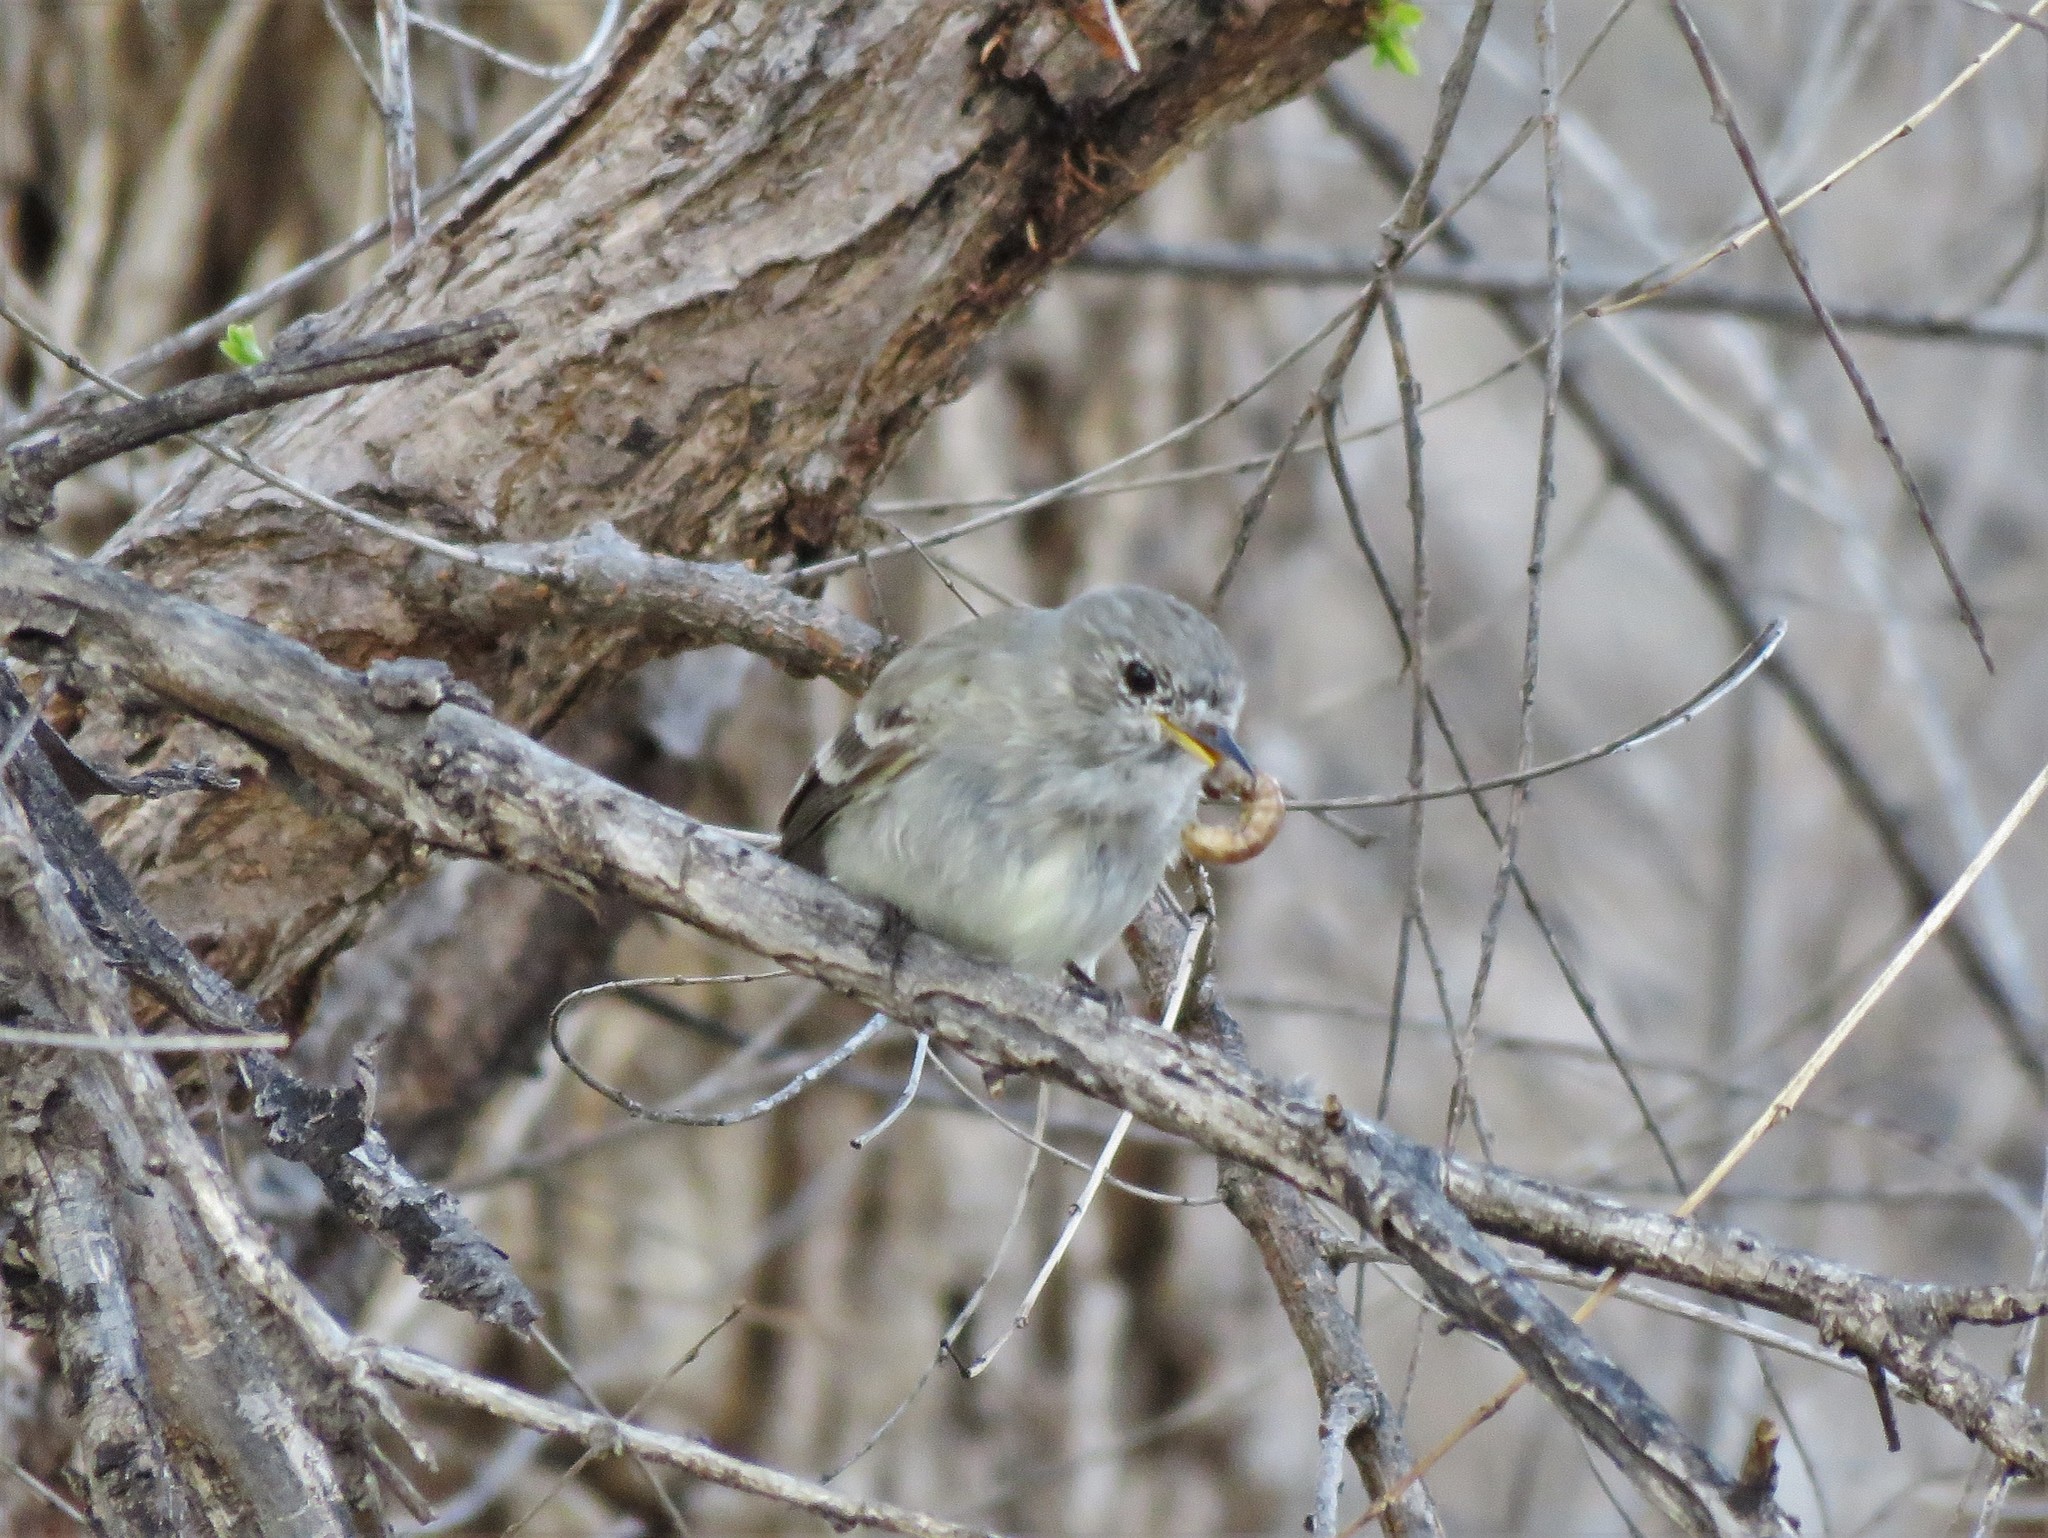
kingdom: Animalia
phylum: Chordata
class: Aves
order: Passeriformes
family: Tyrannidae
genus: Empidonax
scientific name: Empidonax wrightii
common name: Gray flycatcher
